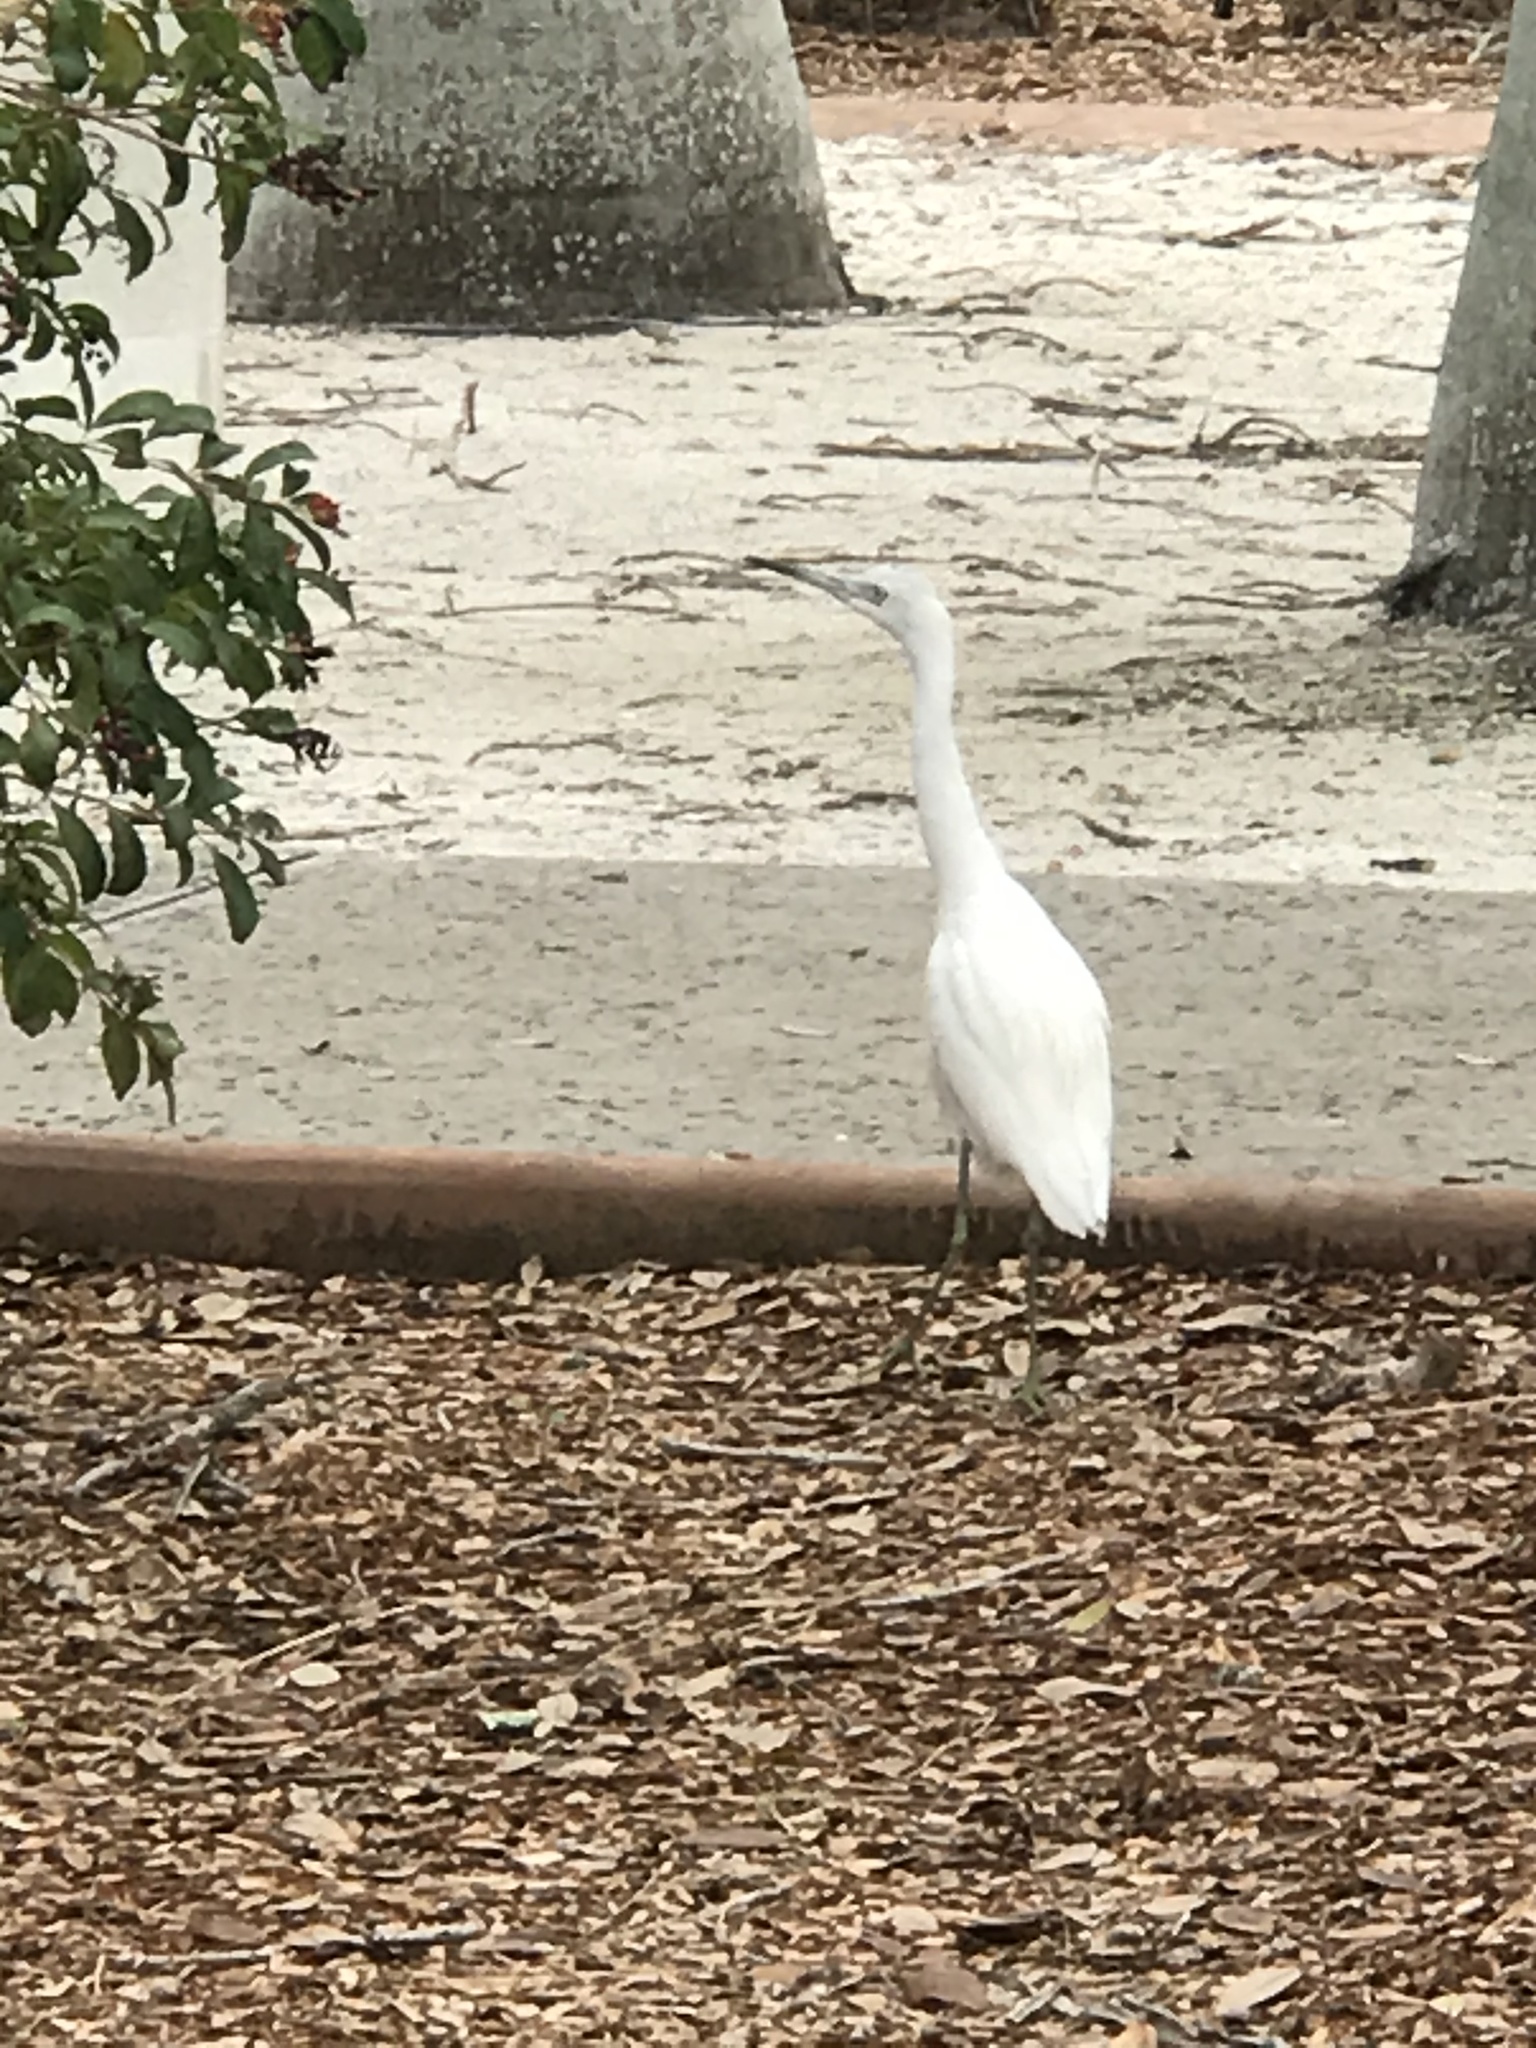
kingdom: Animalia
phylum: Chordata
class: Aves
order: Pelecaniformes
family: Ardeidae
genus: Egretta
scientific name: Egretta caerulea
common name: Little blue heron
